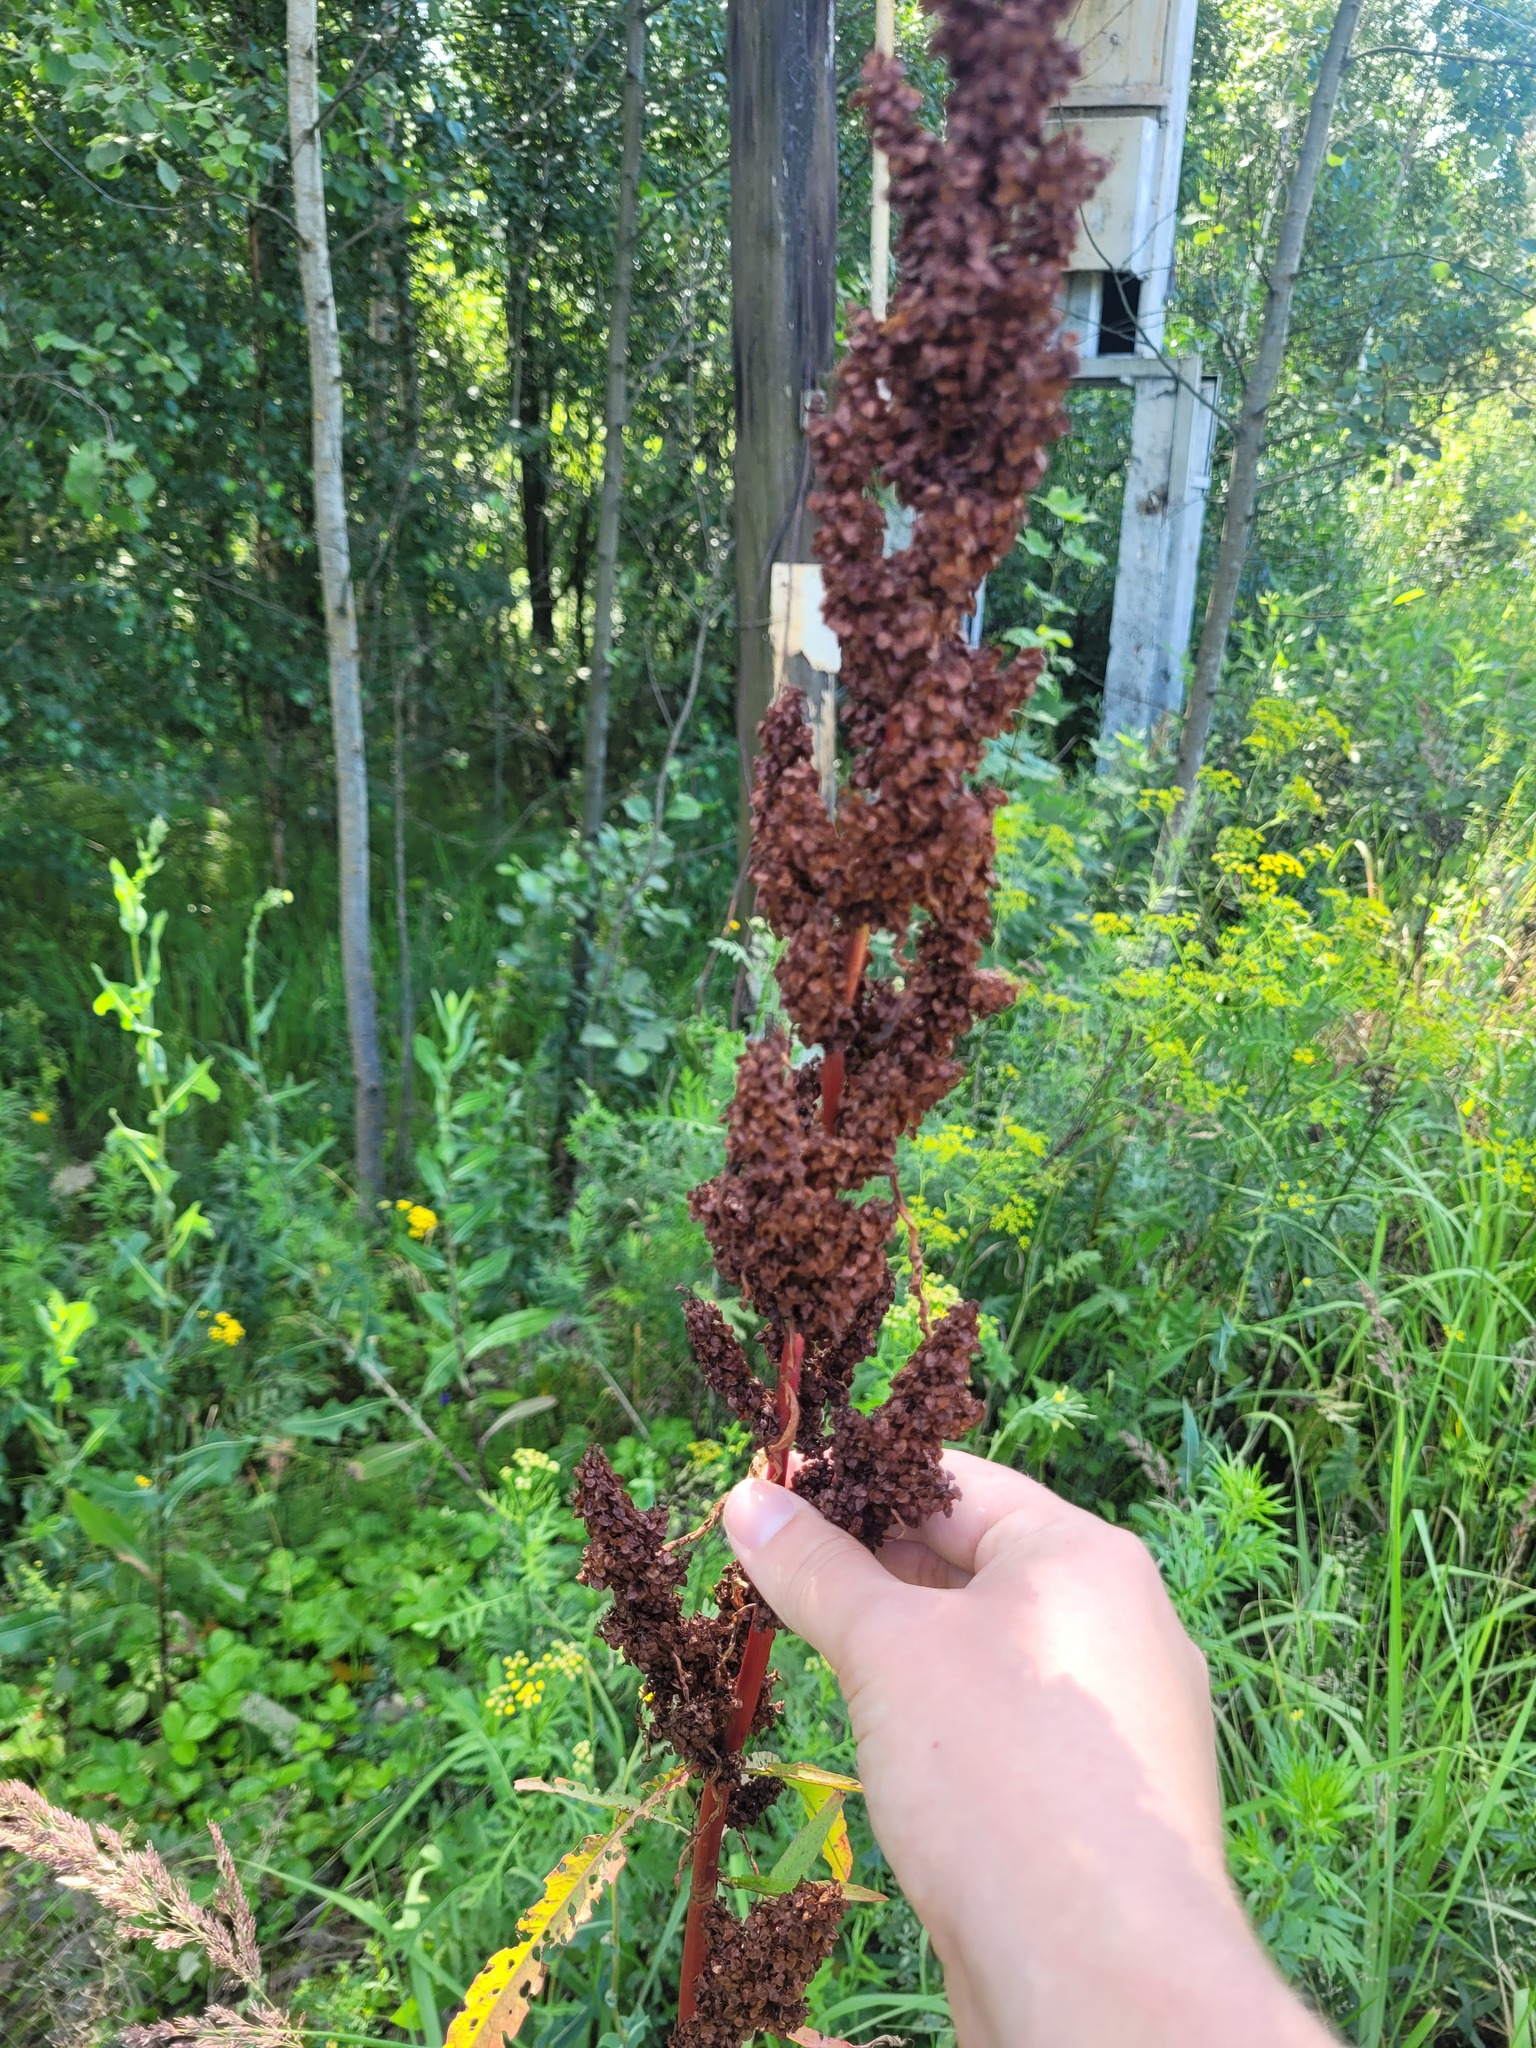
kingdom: Plantae
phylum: Tracheophyta
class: Magnoliopsida
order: Caryophyllales
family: Polygonaceae
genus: Rumex
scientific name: Rumex pseudonatronatus
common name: Field dock
